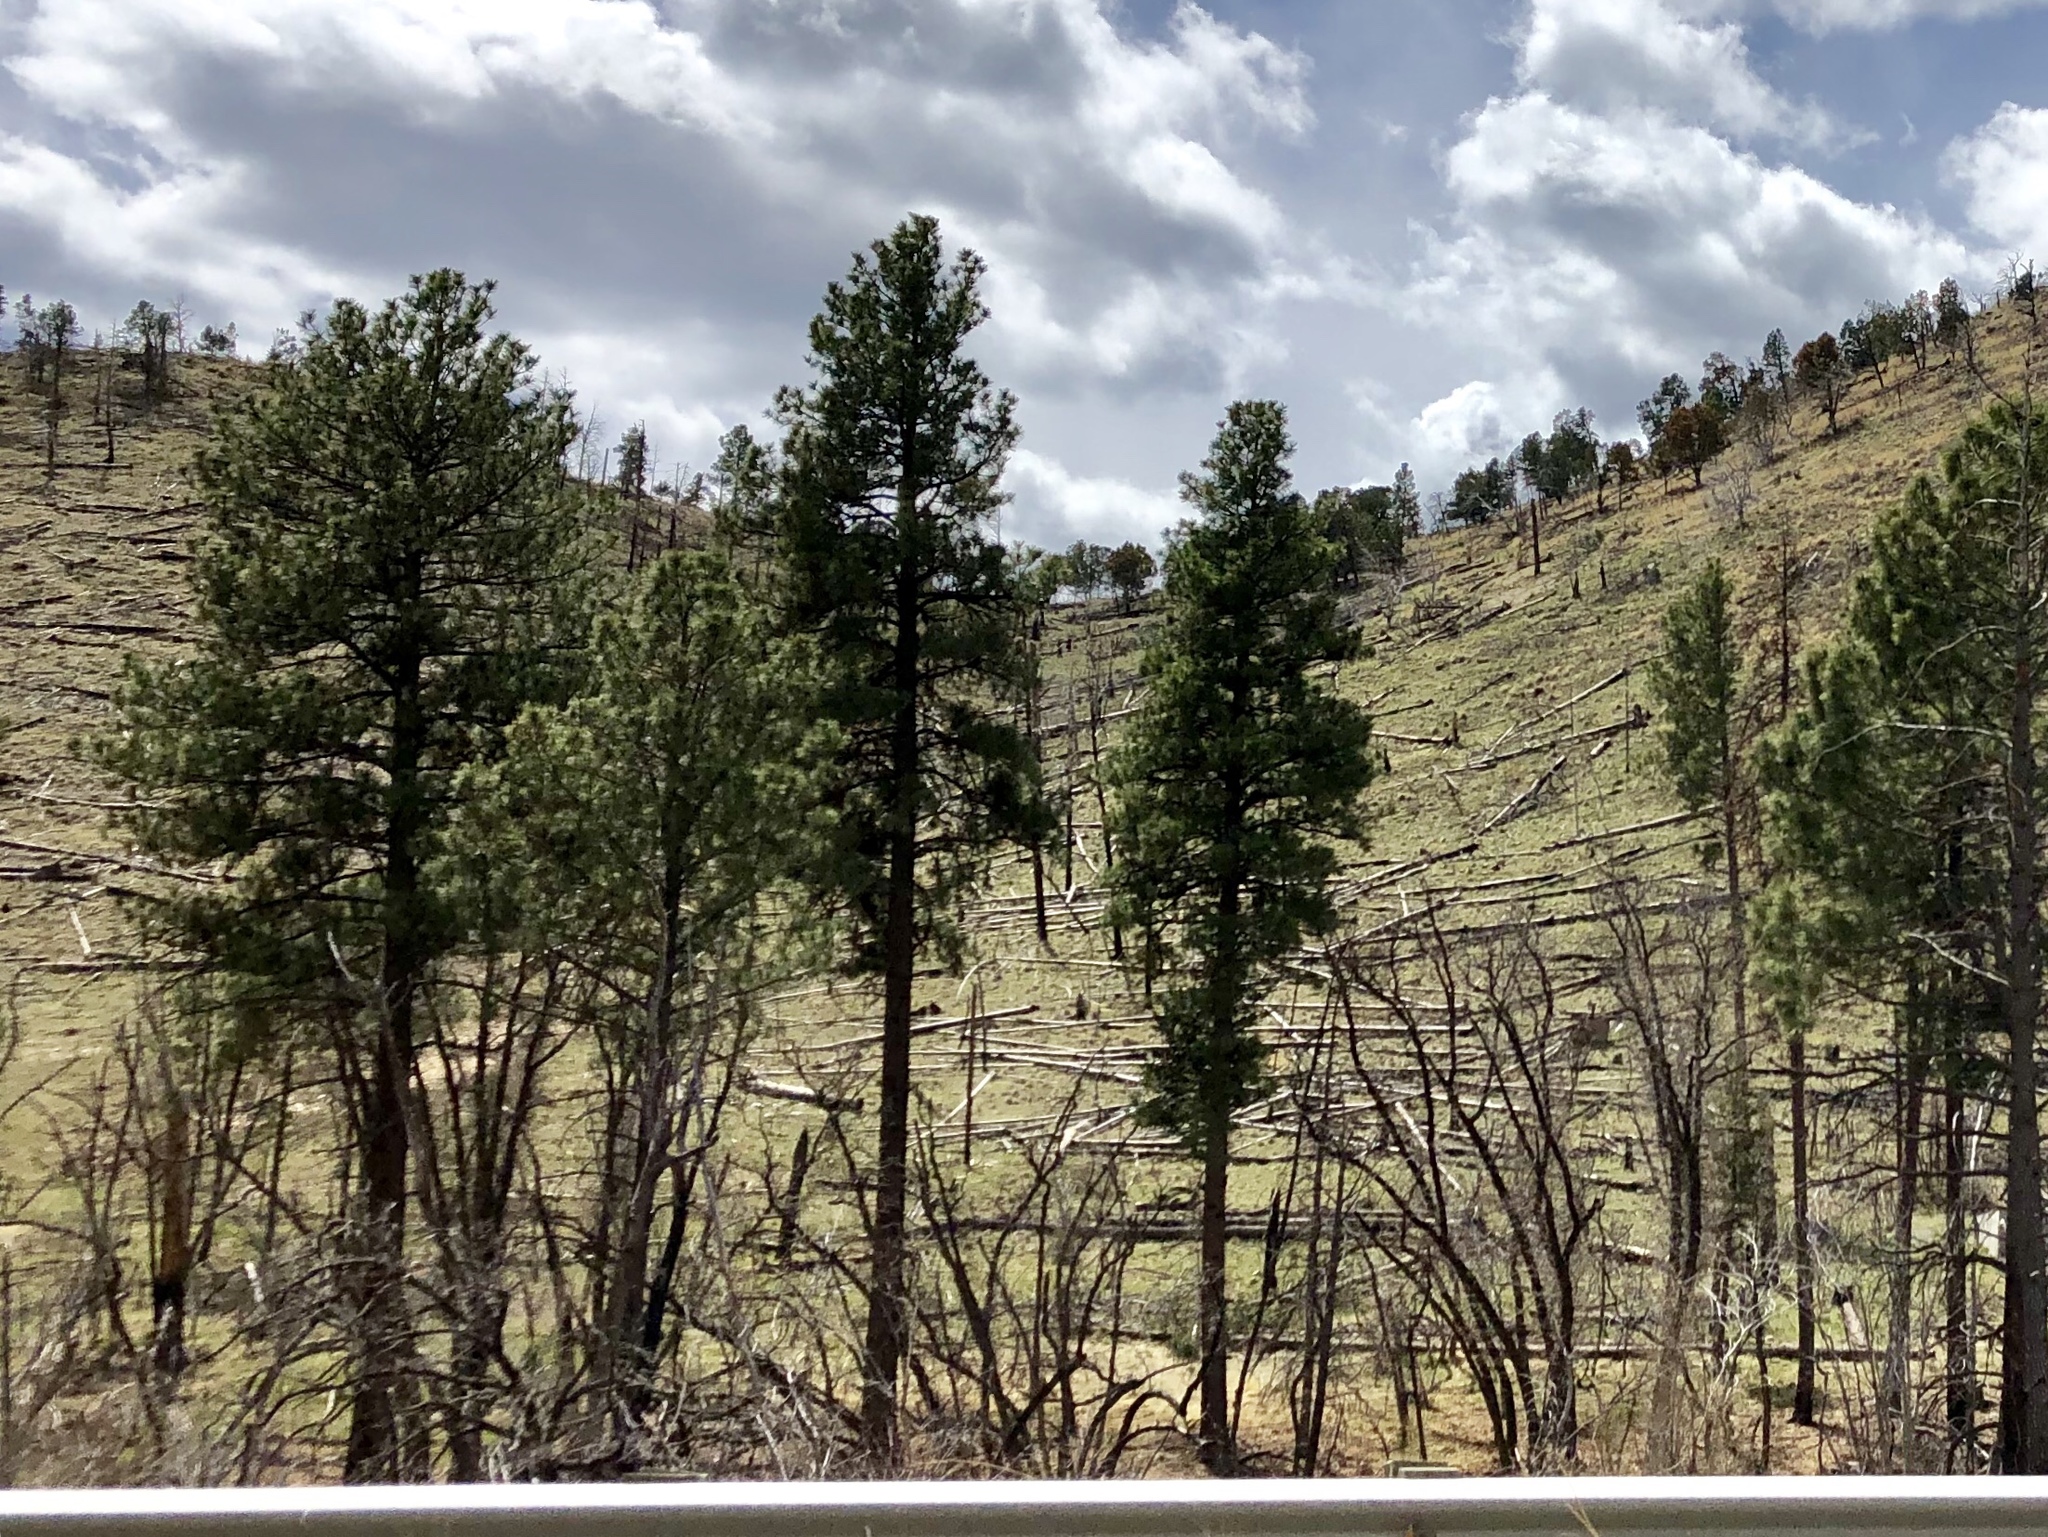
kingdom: Plantae
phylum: Tracheophyta
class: Pinopsida
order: Pinales
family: Pinaceae
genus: Pinus
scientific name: Pinus ponderosa
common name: Western yellow-pine
